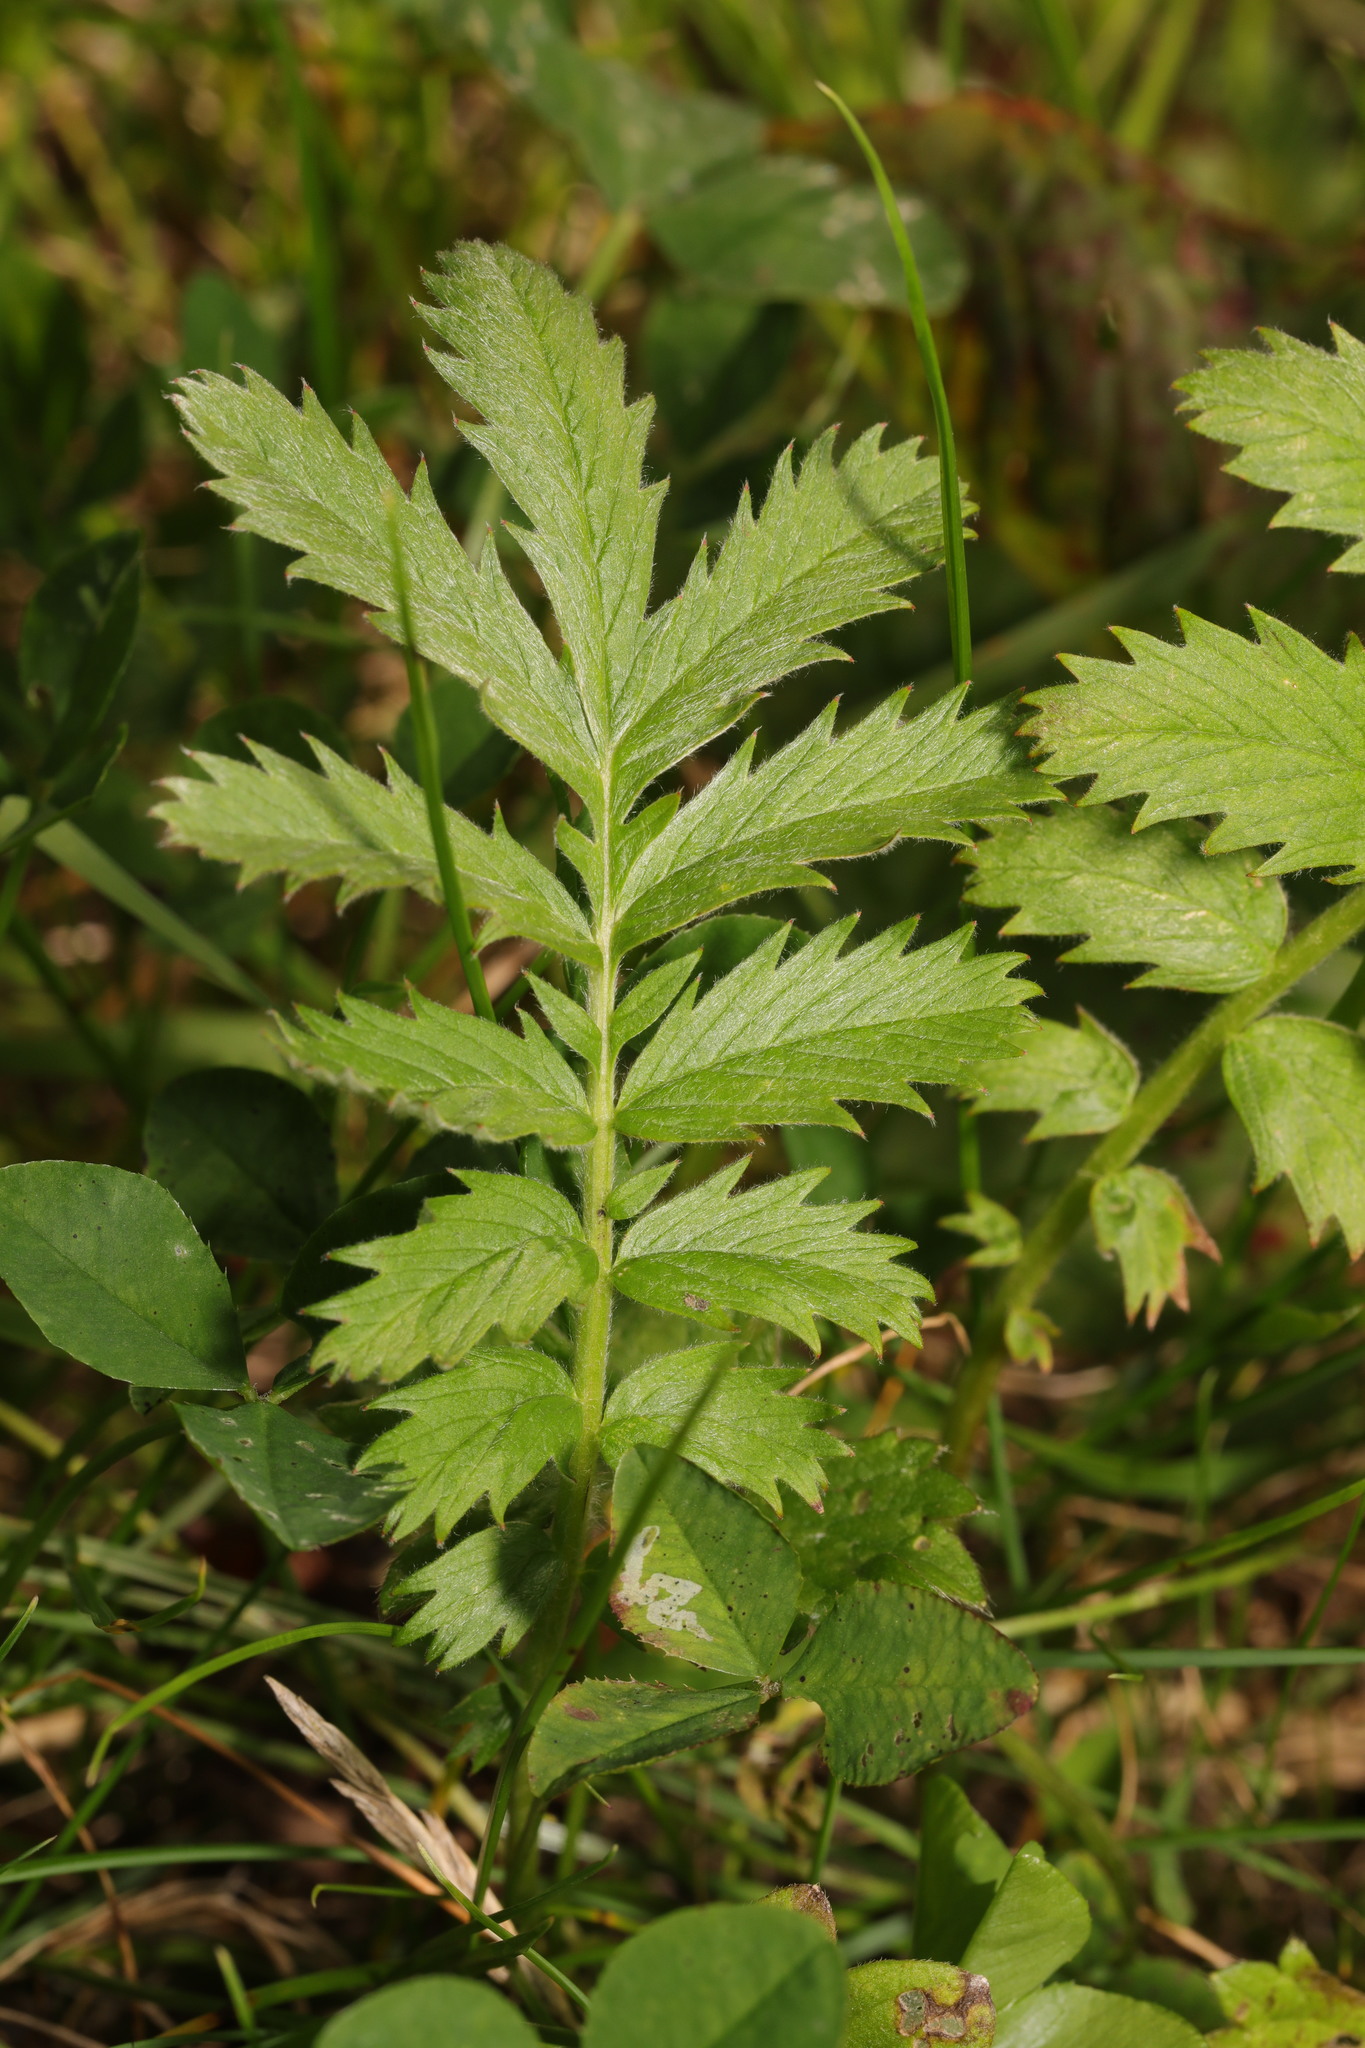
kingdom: Plantae
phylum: Tracheophyta
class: Magnoliopsida
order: Rosales
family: Rosaceae
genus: Argentina
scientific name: Argentina anserina
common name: Common silverweed
